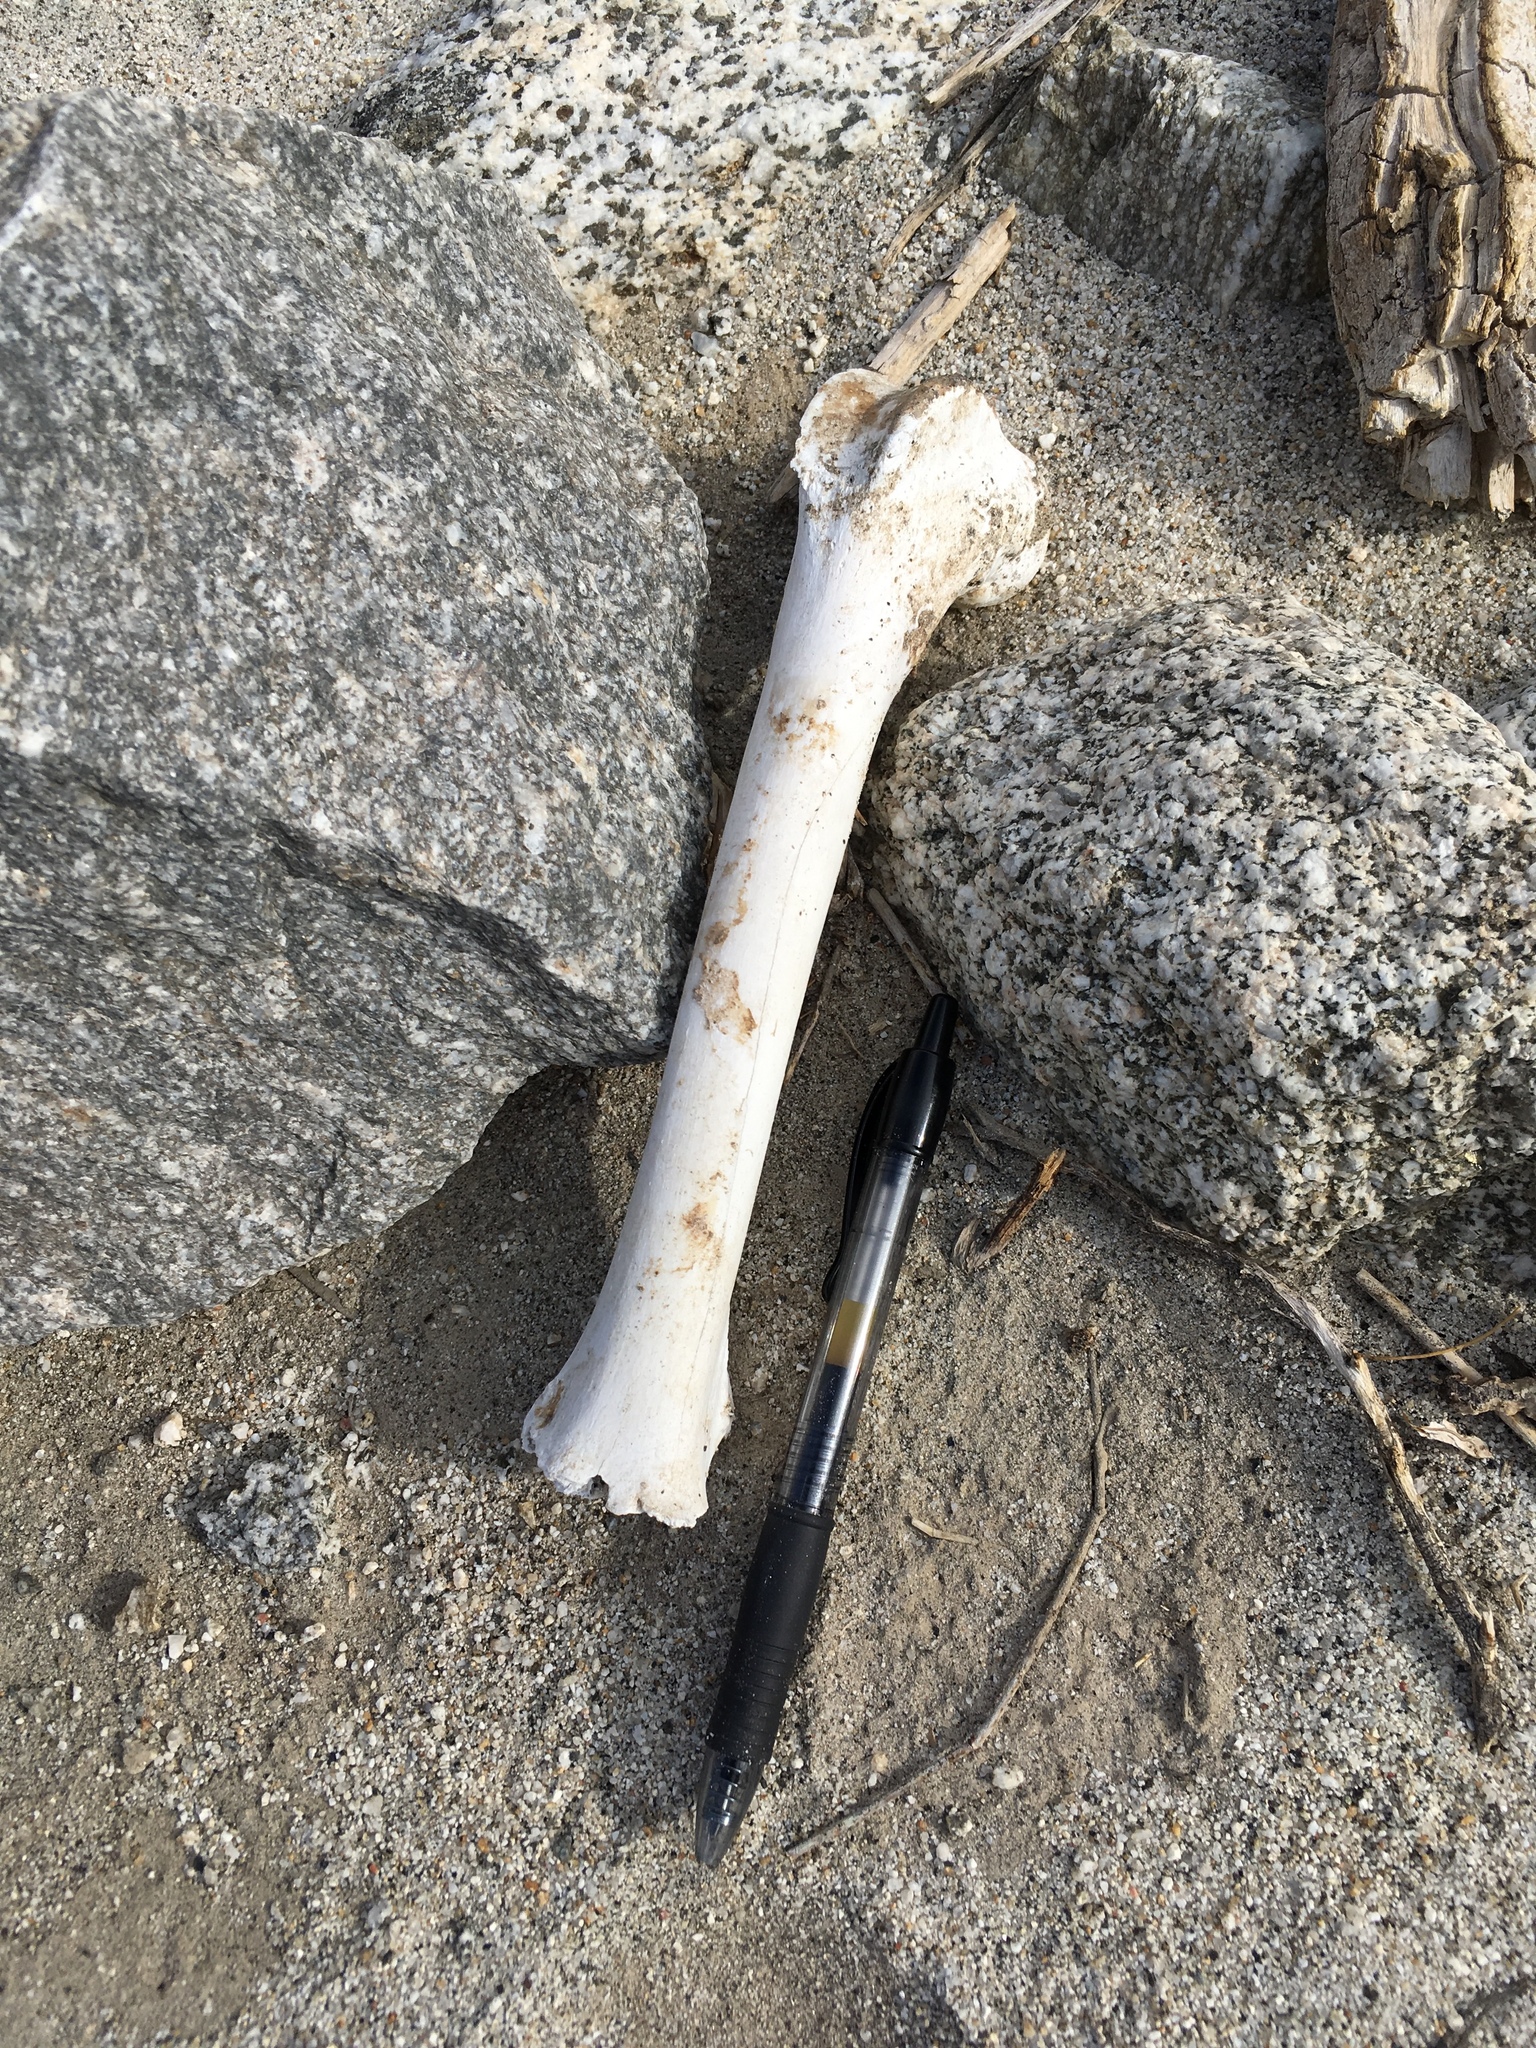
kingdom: Animalia
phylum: Chordata
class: Mammalia
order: Artiodactyla
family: Bovidae
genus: Ovis
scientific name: Ovis canadensis
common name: Bighorn sheep
